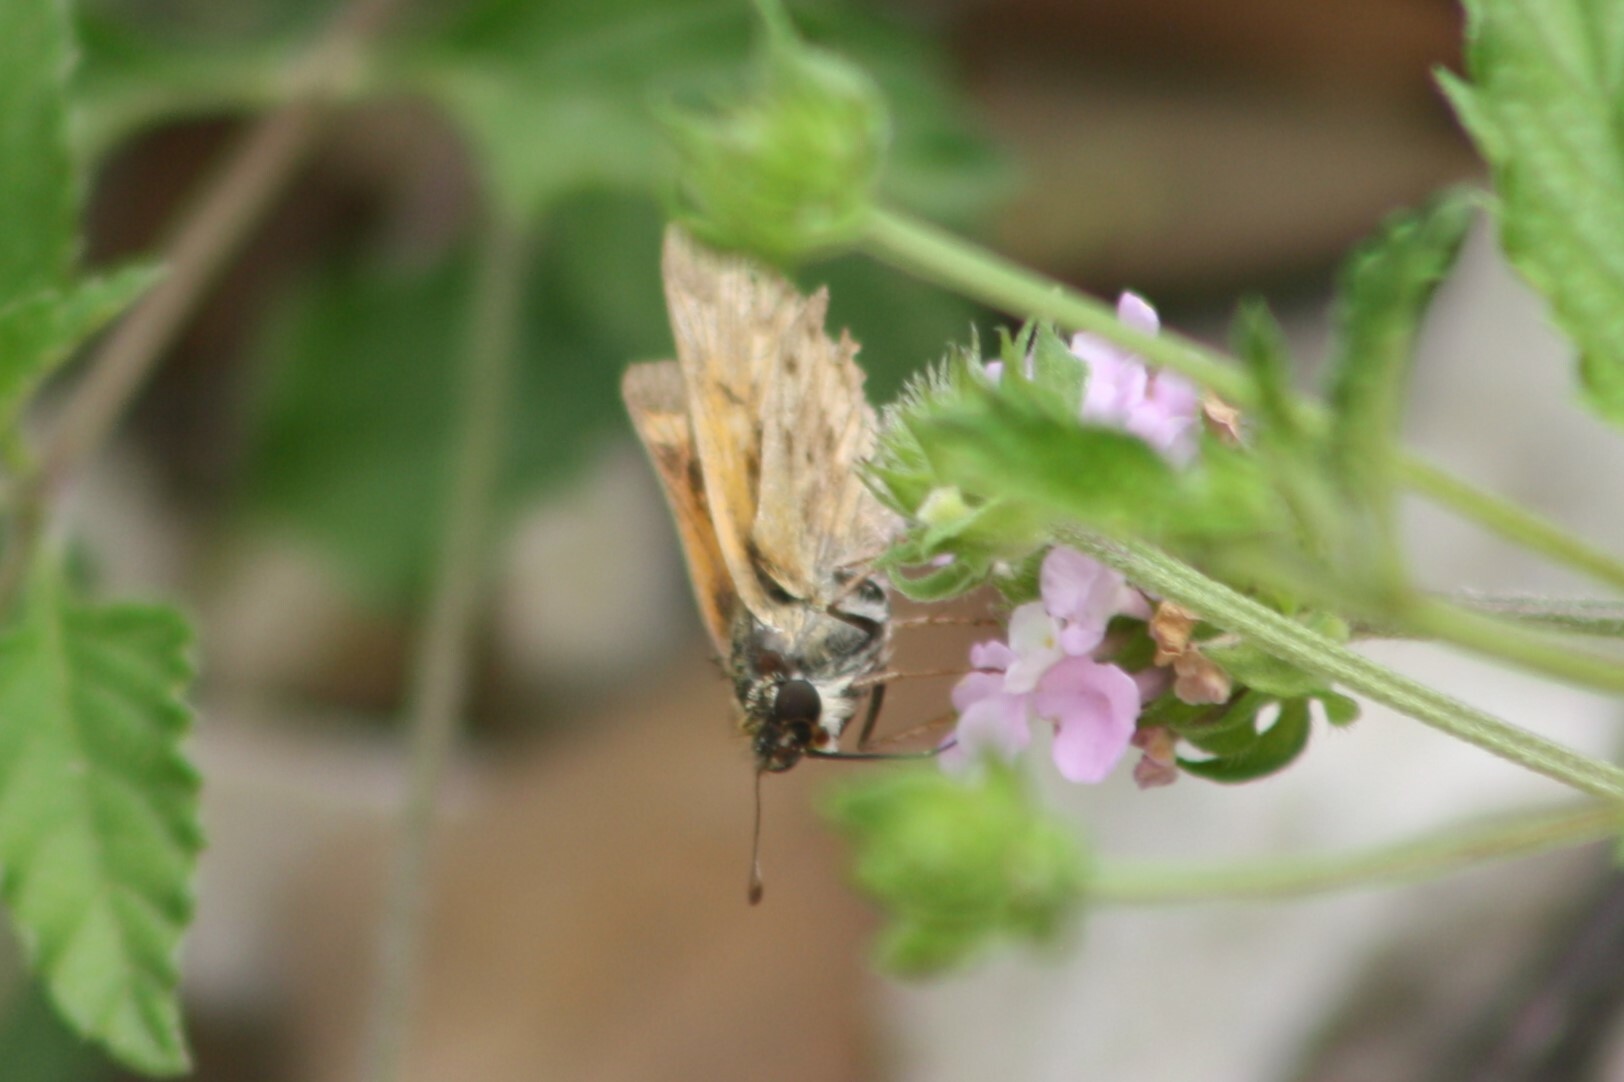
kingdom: Animalia
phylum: Arthropoda
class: Insecta
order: Lepidoptera
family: Hesperiidae
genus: Hylephila
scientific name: Hylephila phyleus
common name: Fiery skipper
